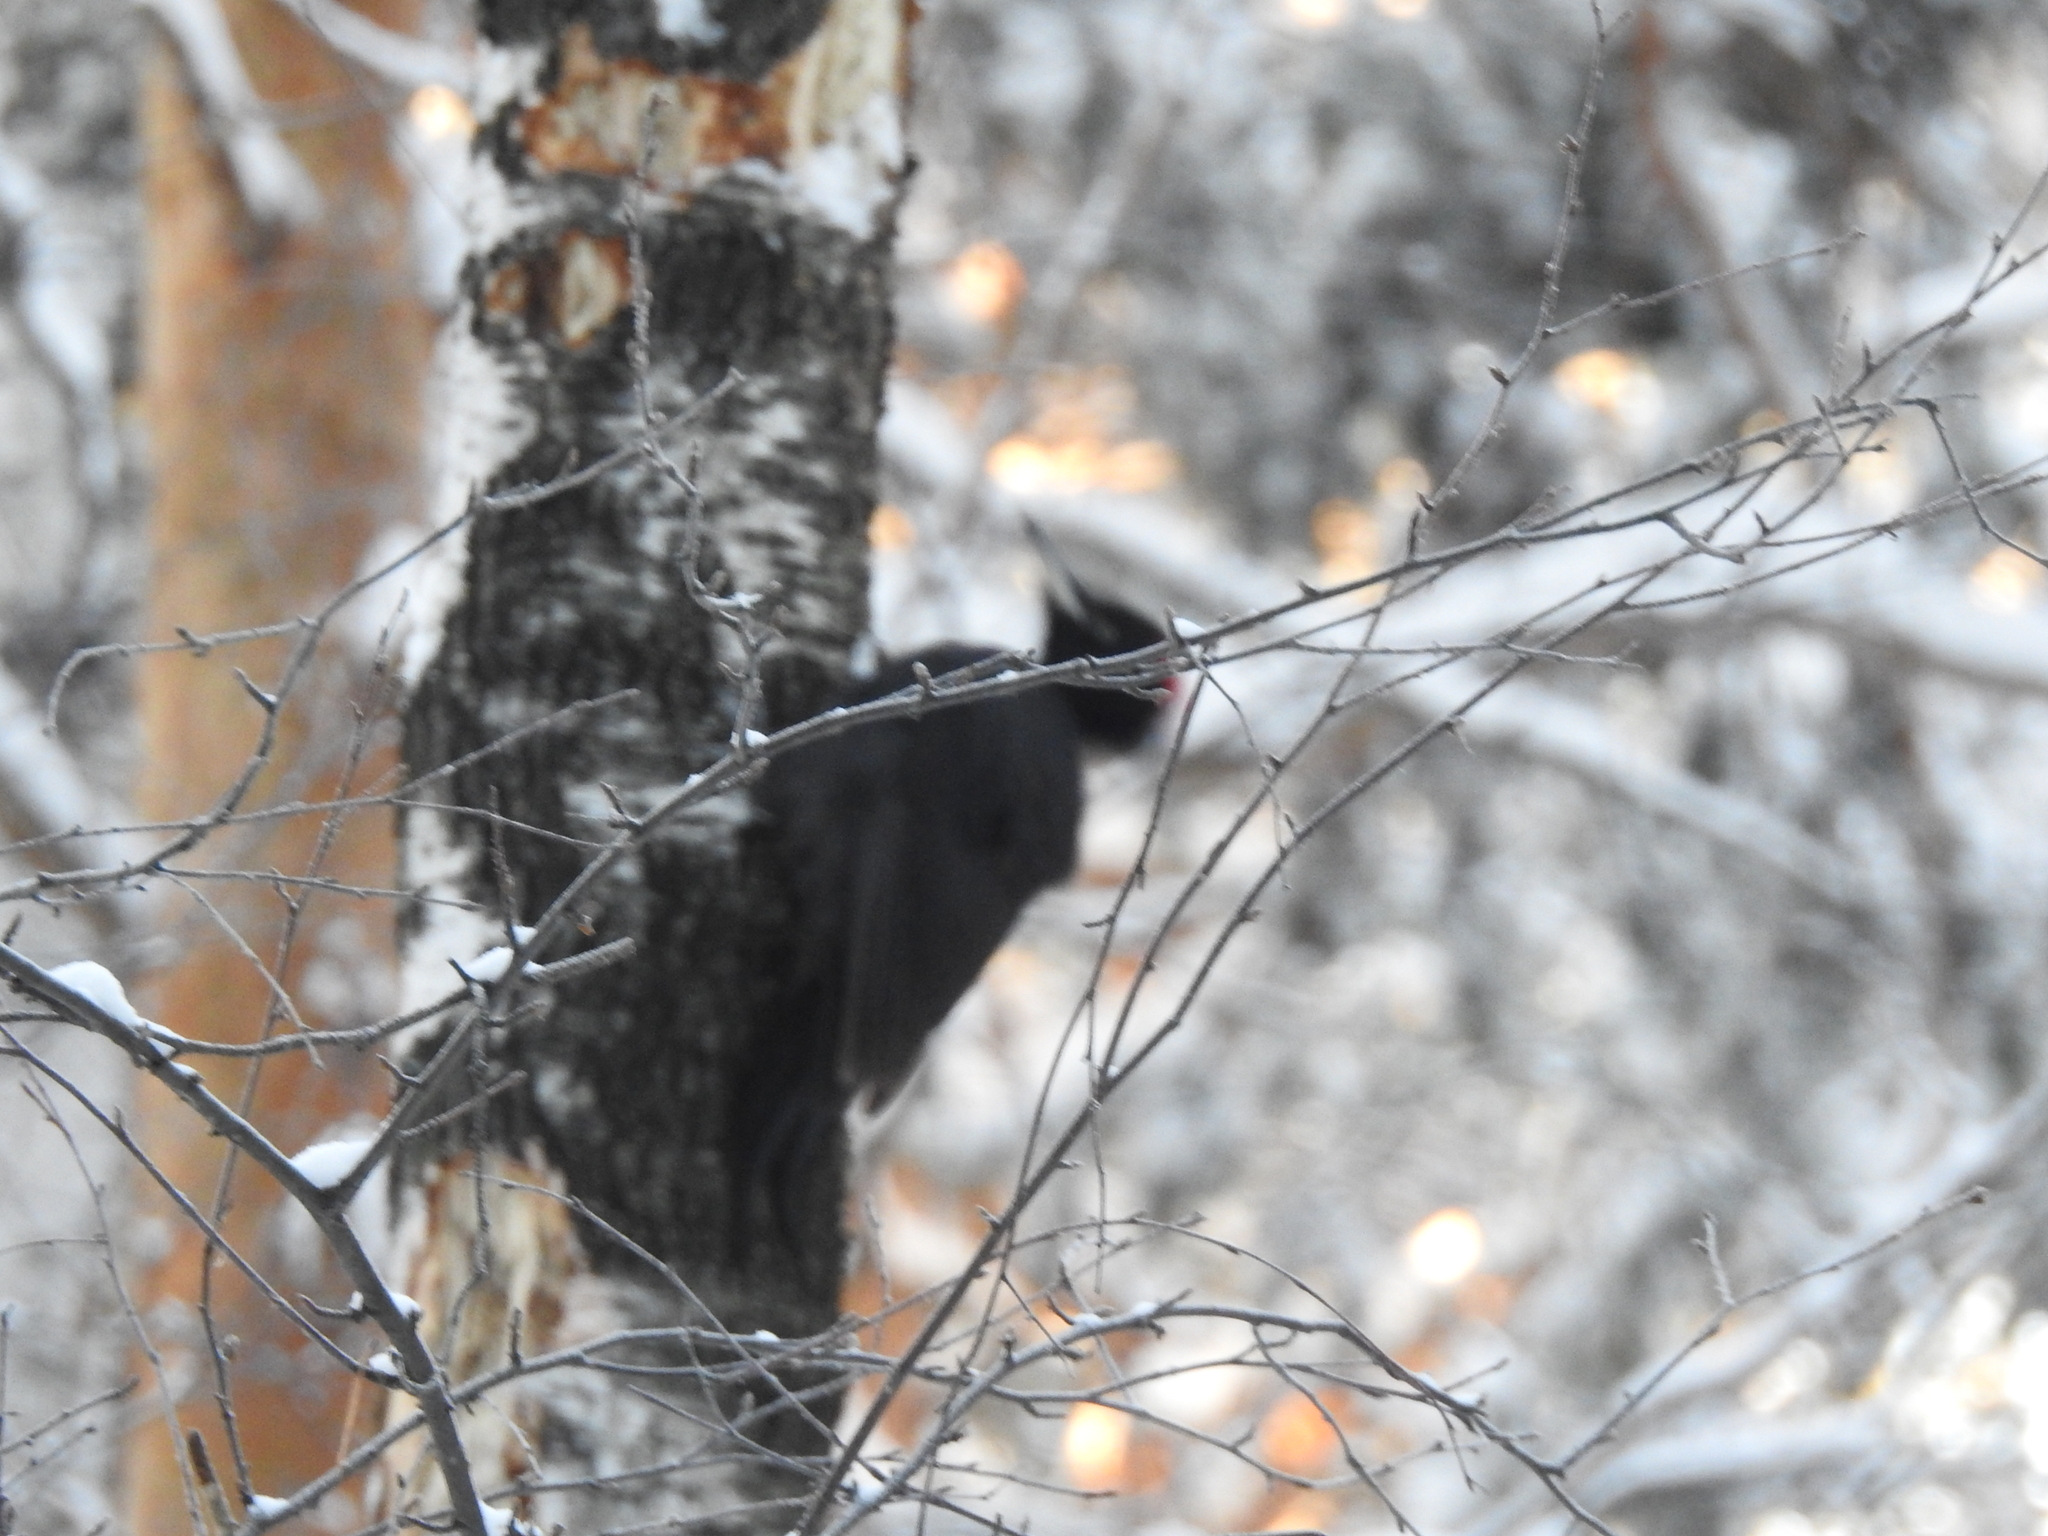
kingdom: Animalia
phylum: Chordata
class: Aves
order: Piciformes
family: Picidae
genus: Dryocopus
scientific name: Dryocopus martius
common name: Black woodpecker
